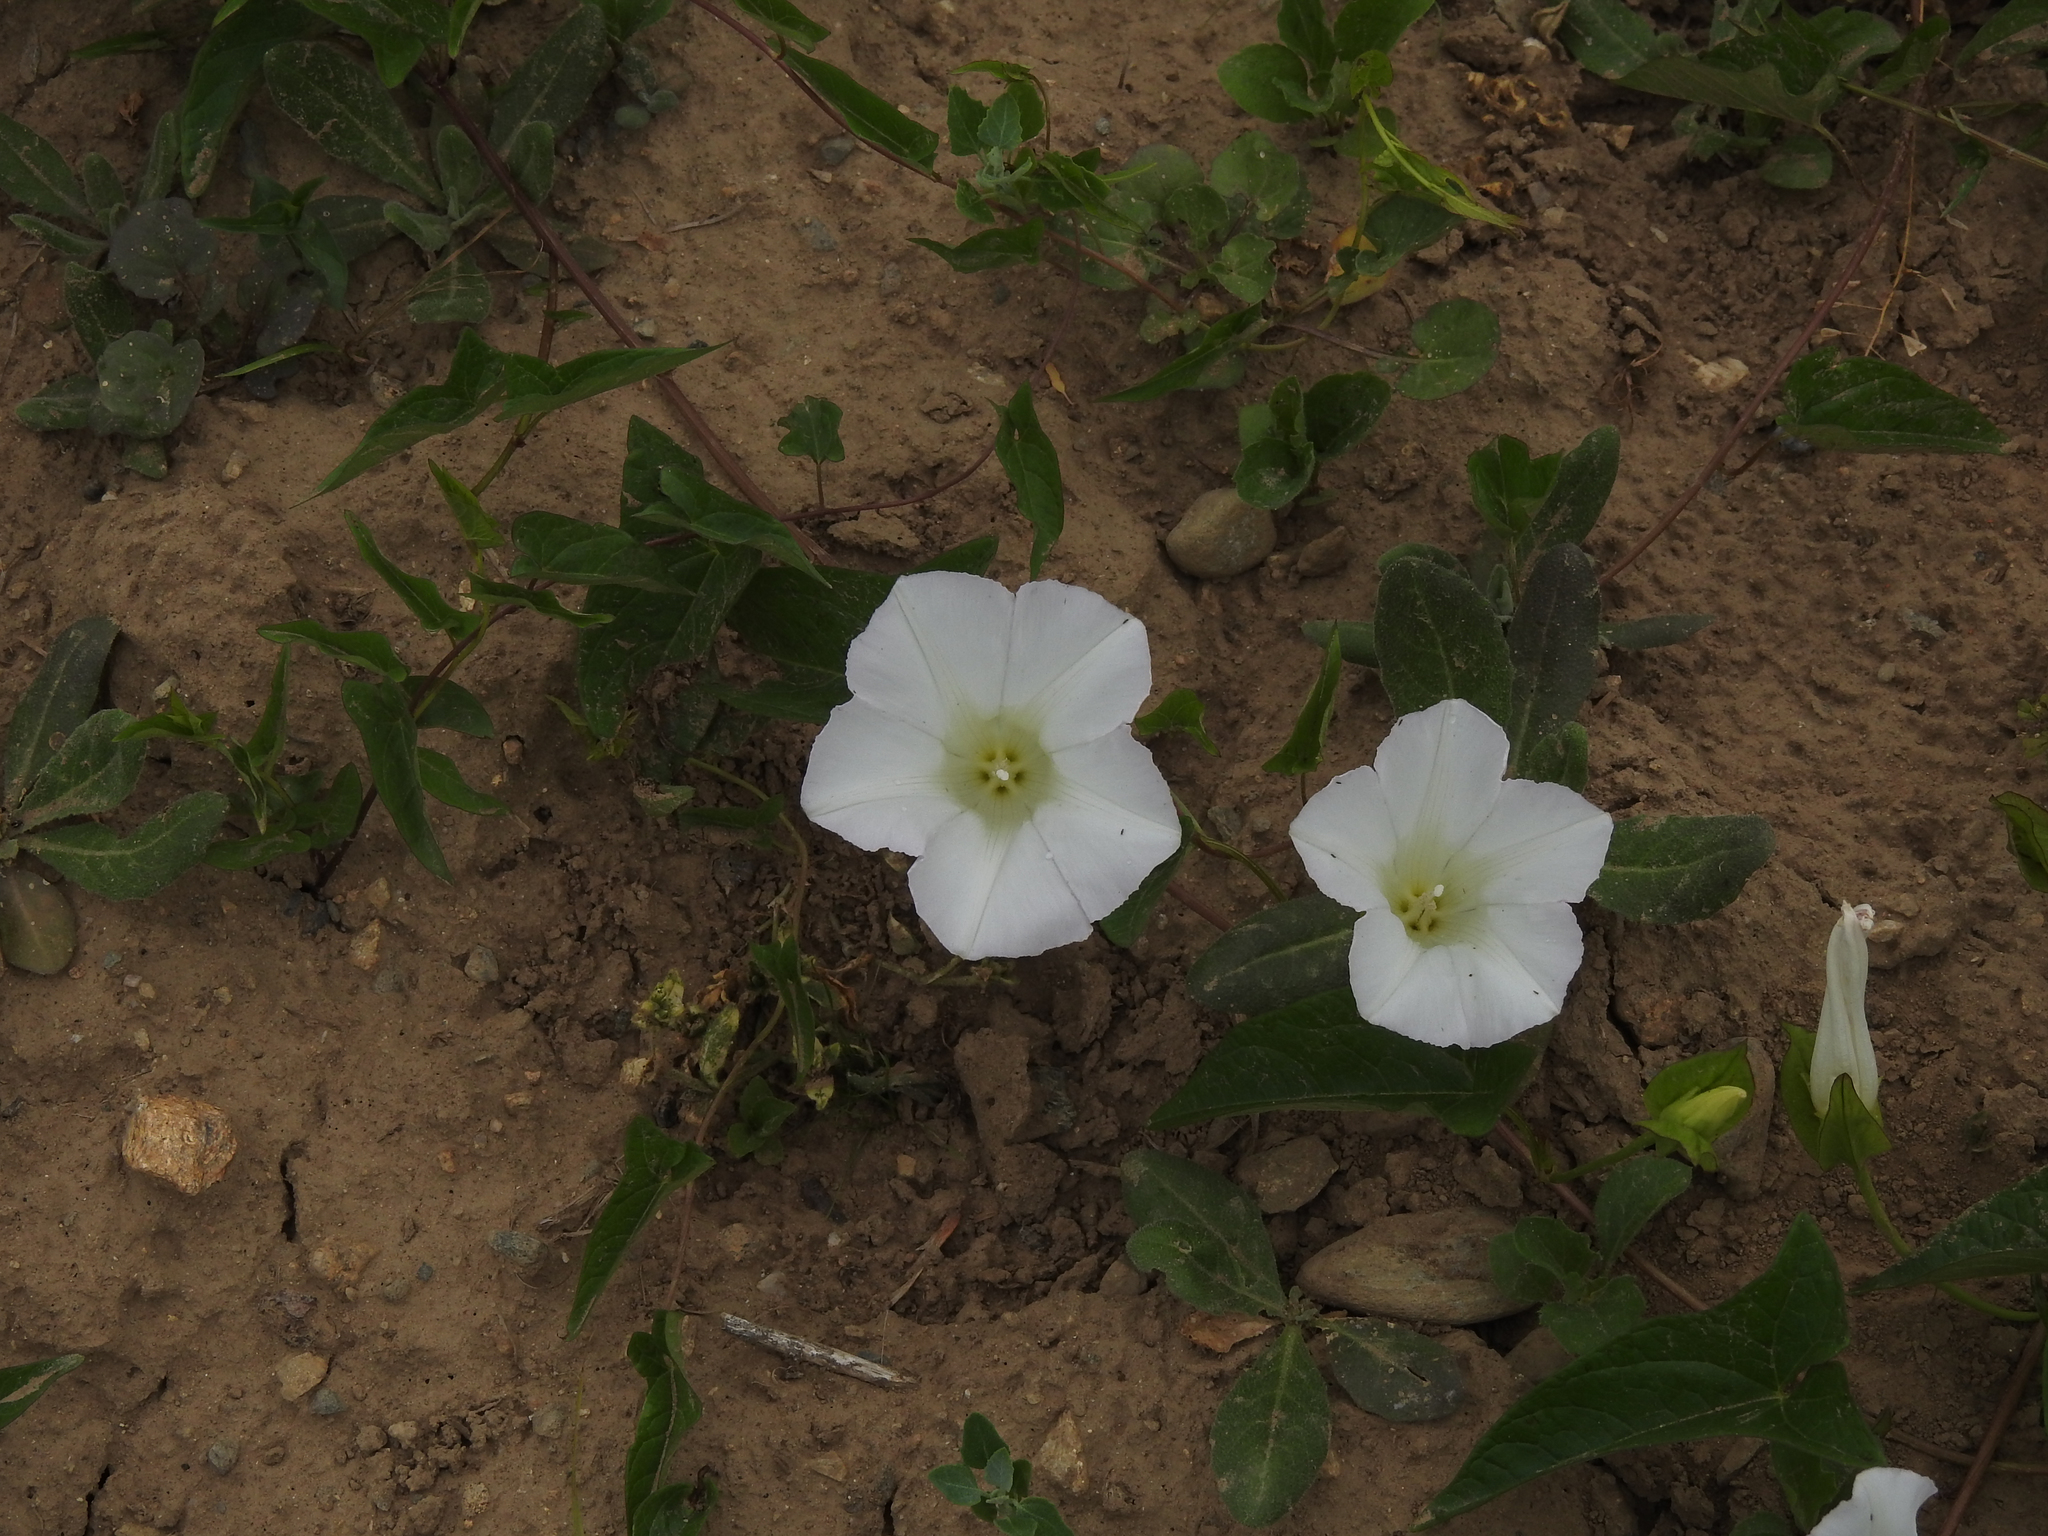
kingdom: Plantae
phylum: Tracheophyta
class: Magnoliopsida
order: Solanales
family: Convolvulaceae
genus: Calystegia
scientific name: Calystegia sepium
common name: Hedge bindweed
